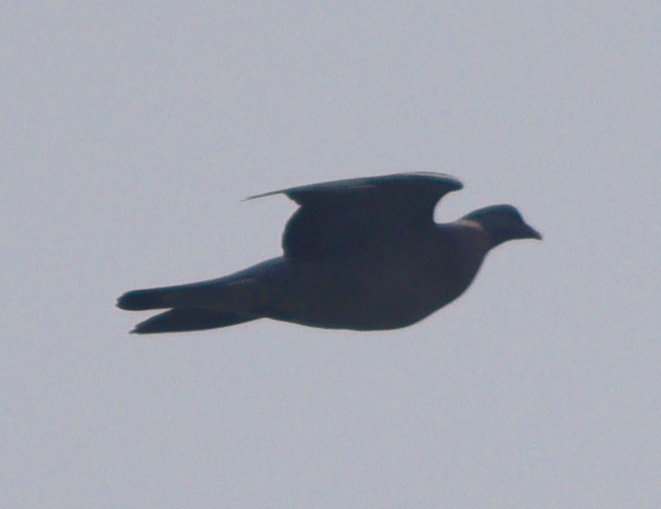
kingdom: Animalia
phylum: Chordata
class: Aves
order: Columbiformes
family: Columbidae
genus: Columba
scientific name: Columba palumbus
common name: Common wood pigeon
